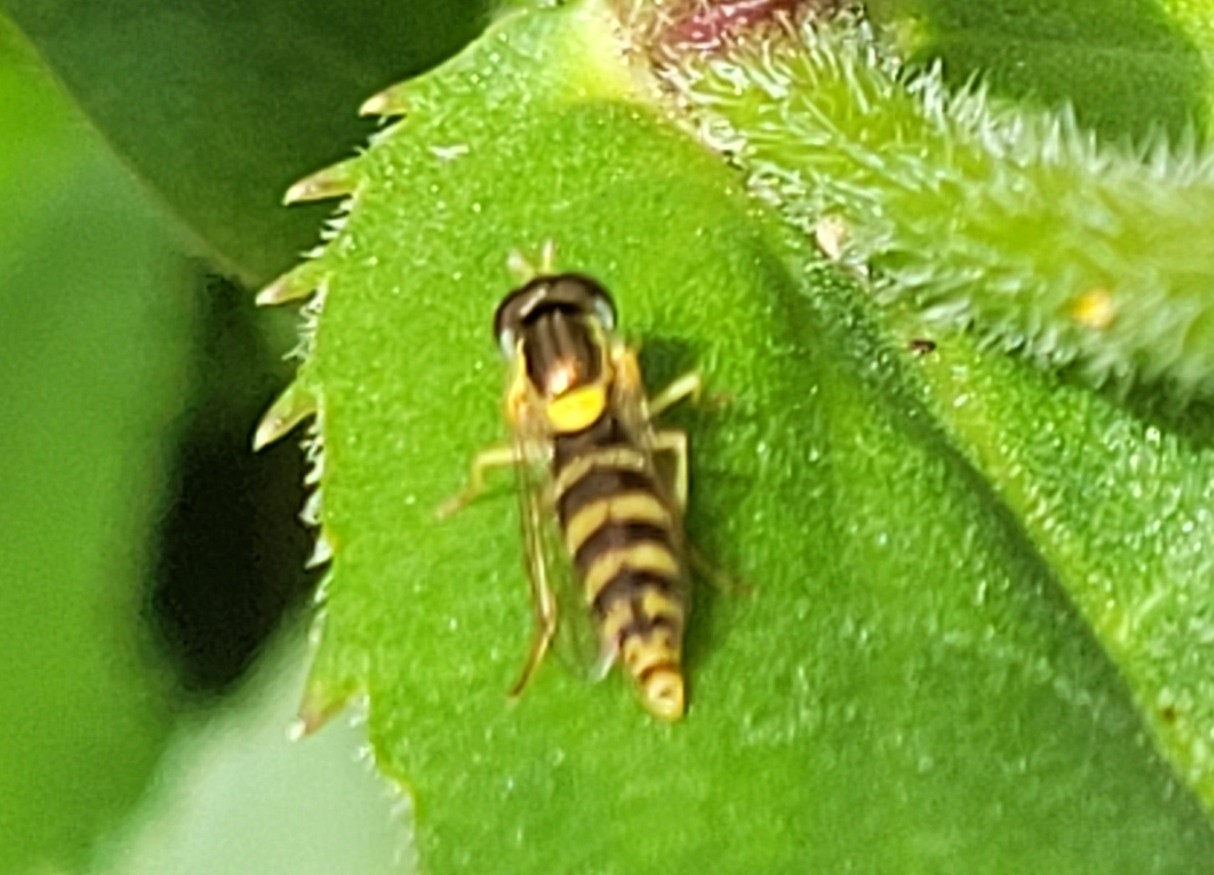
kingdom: Animalia
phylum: Arthropoda
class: Insecta
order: Diptera
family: Syrphidae
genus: Sphaerophoria
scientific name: Sphaerophoria
